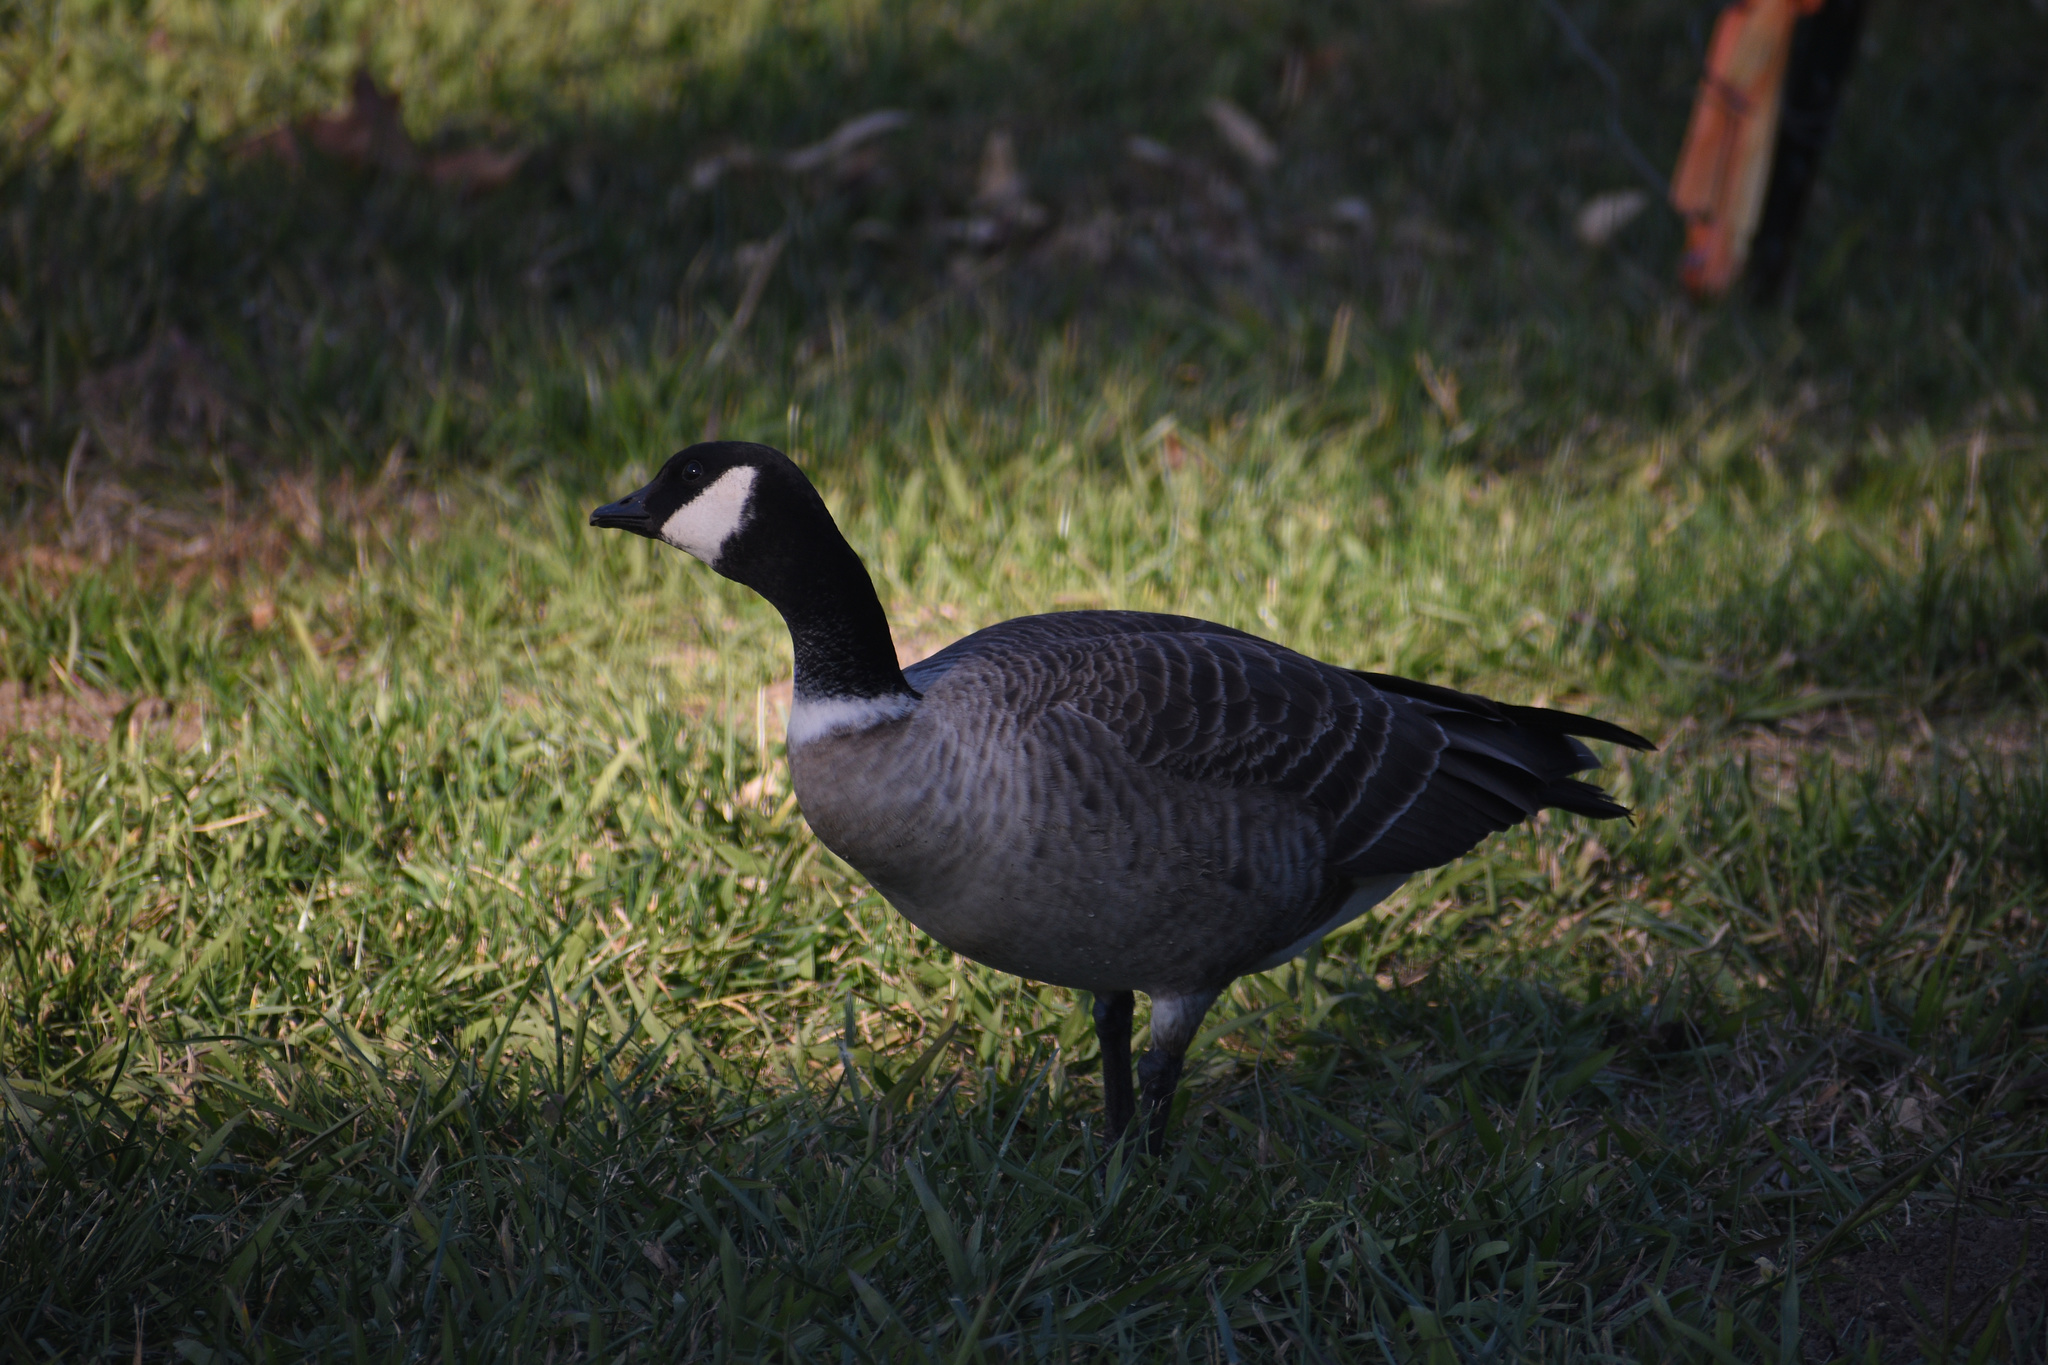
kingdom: Animalia
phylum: Chordata
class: Aves
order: Anseriformes
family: Anatidae
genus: Branta
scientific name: Branta hutchinsii
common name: Cackling goose
